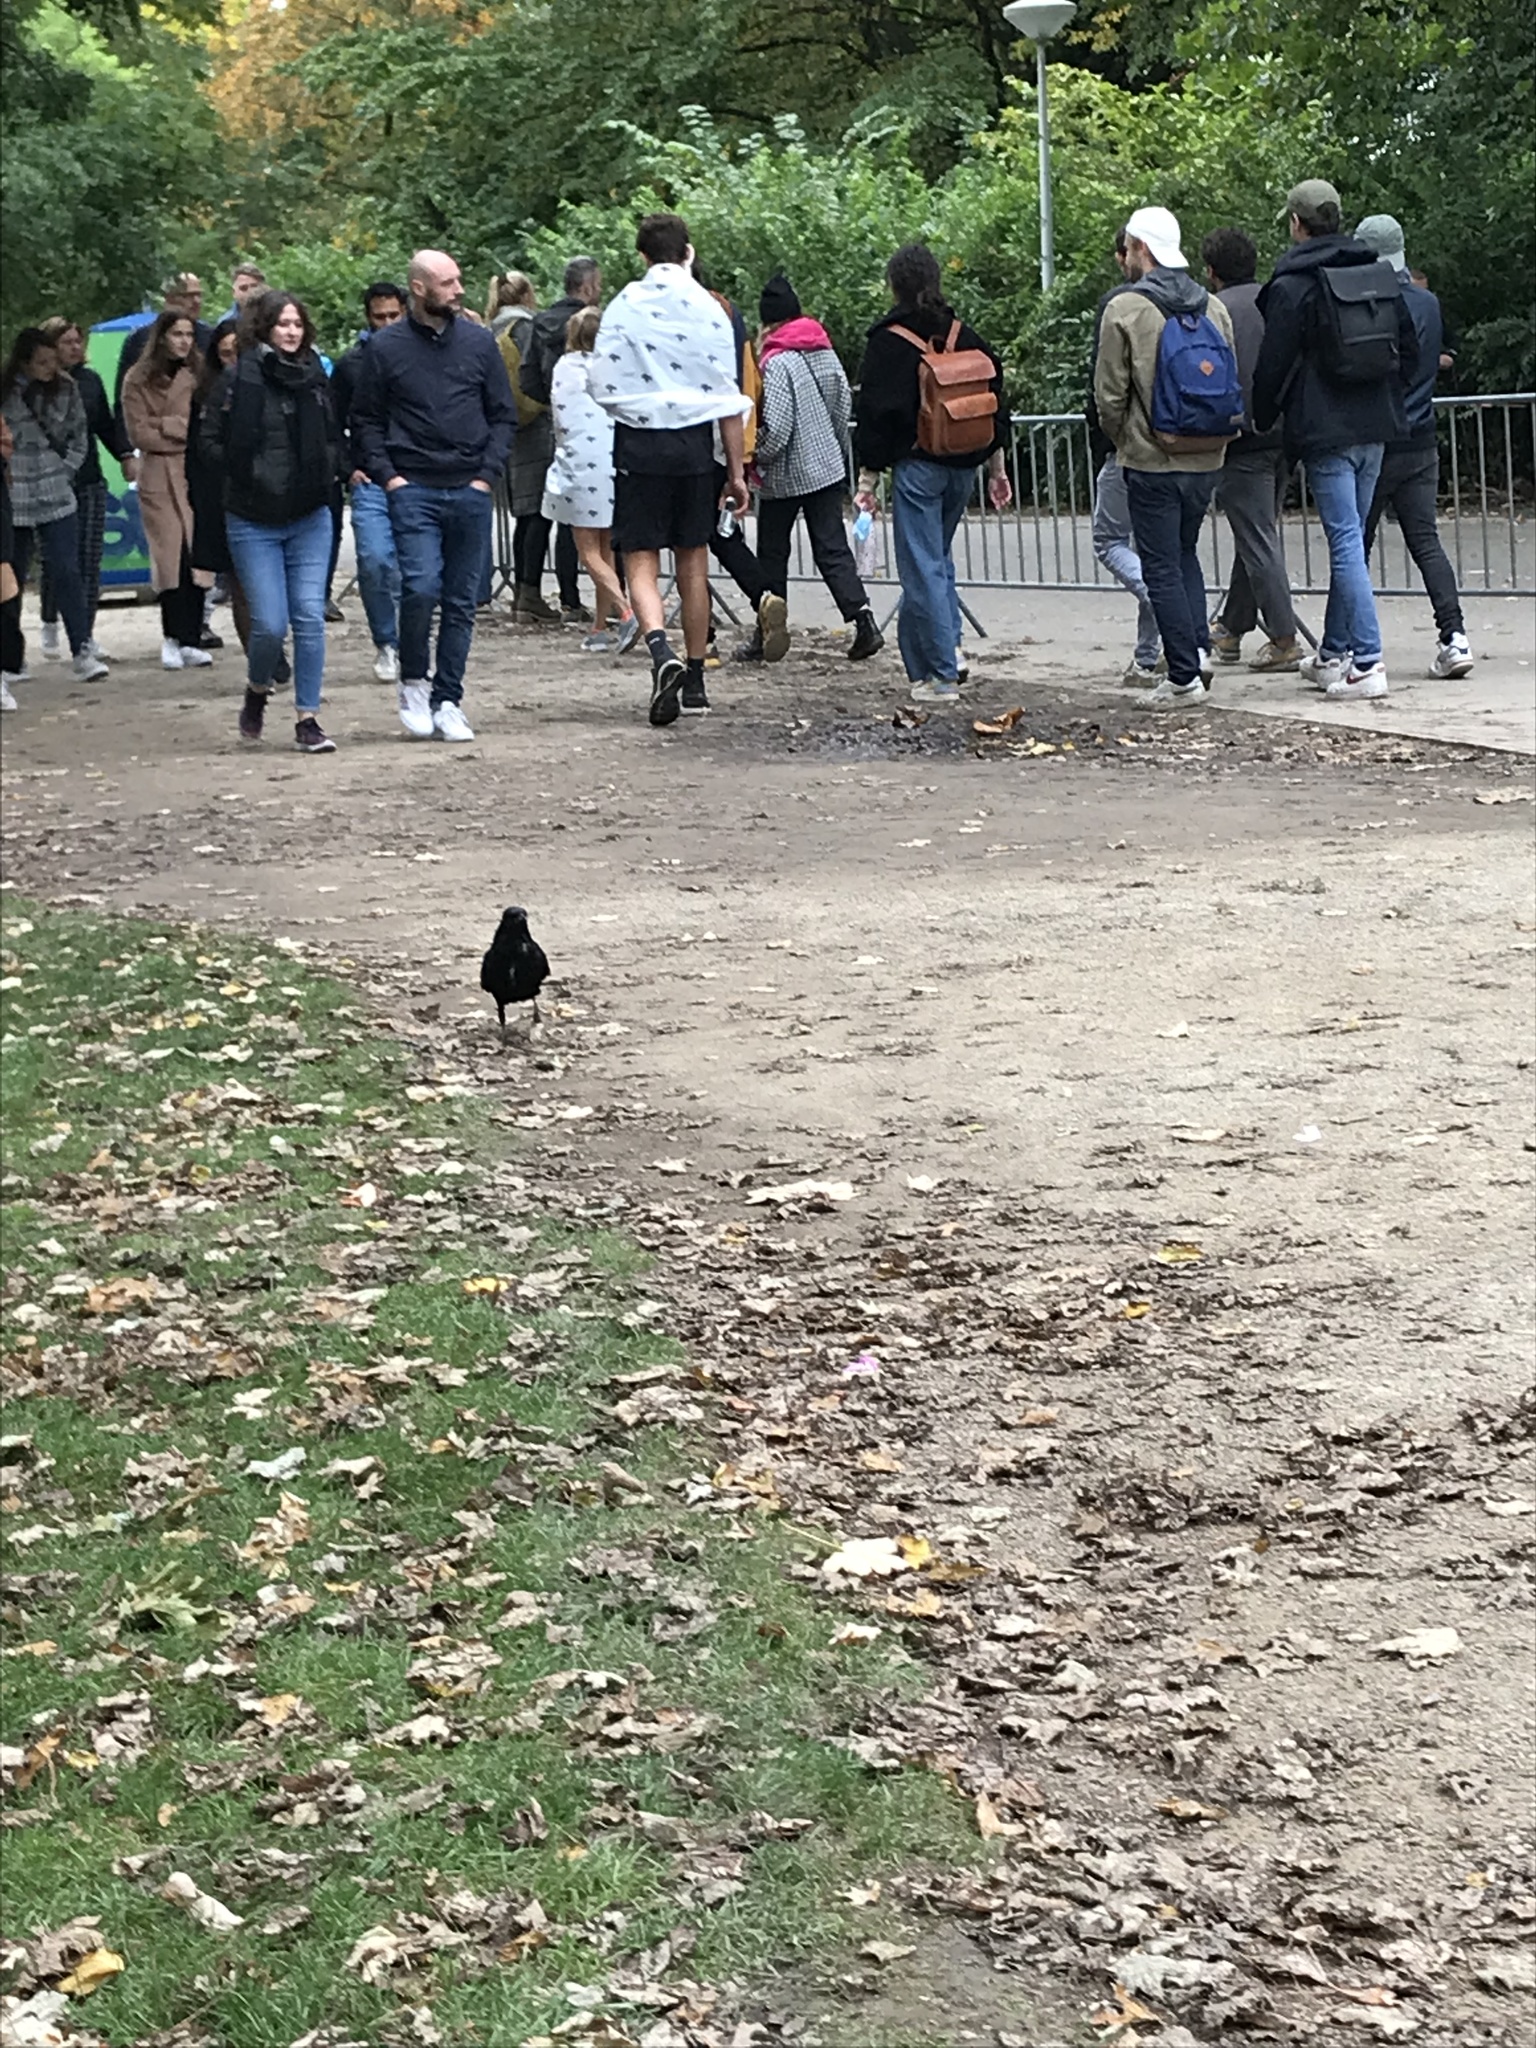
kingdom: Animalia
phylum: Chordata
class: Aves
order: Passeriformes
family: Corvidae
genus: Corvus
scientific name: Corvus corone
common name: Carrion crow
